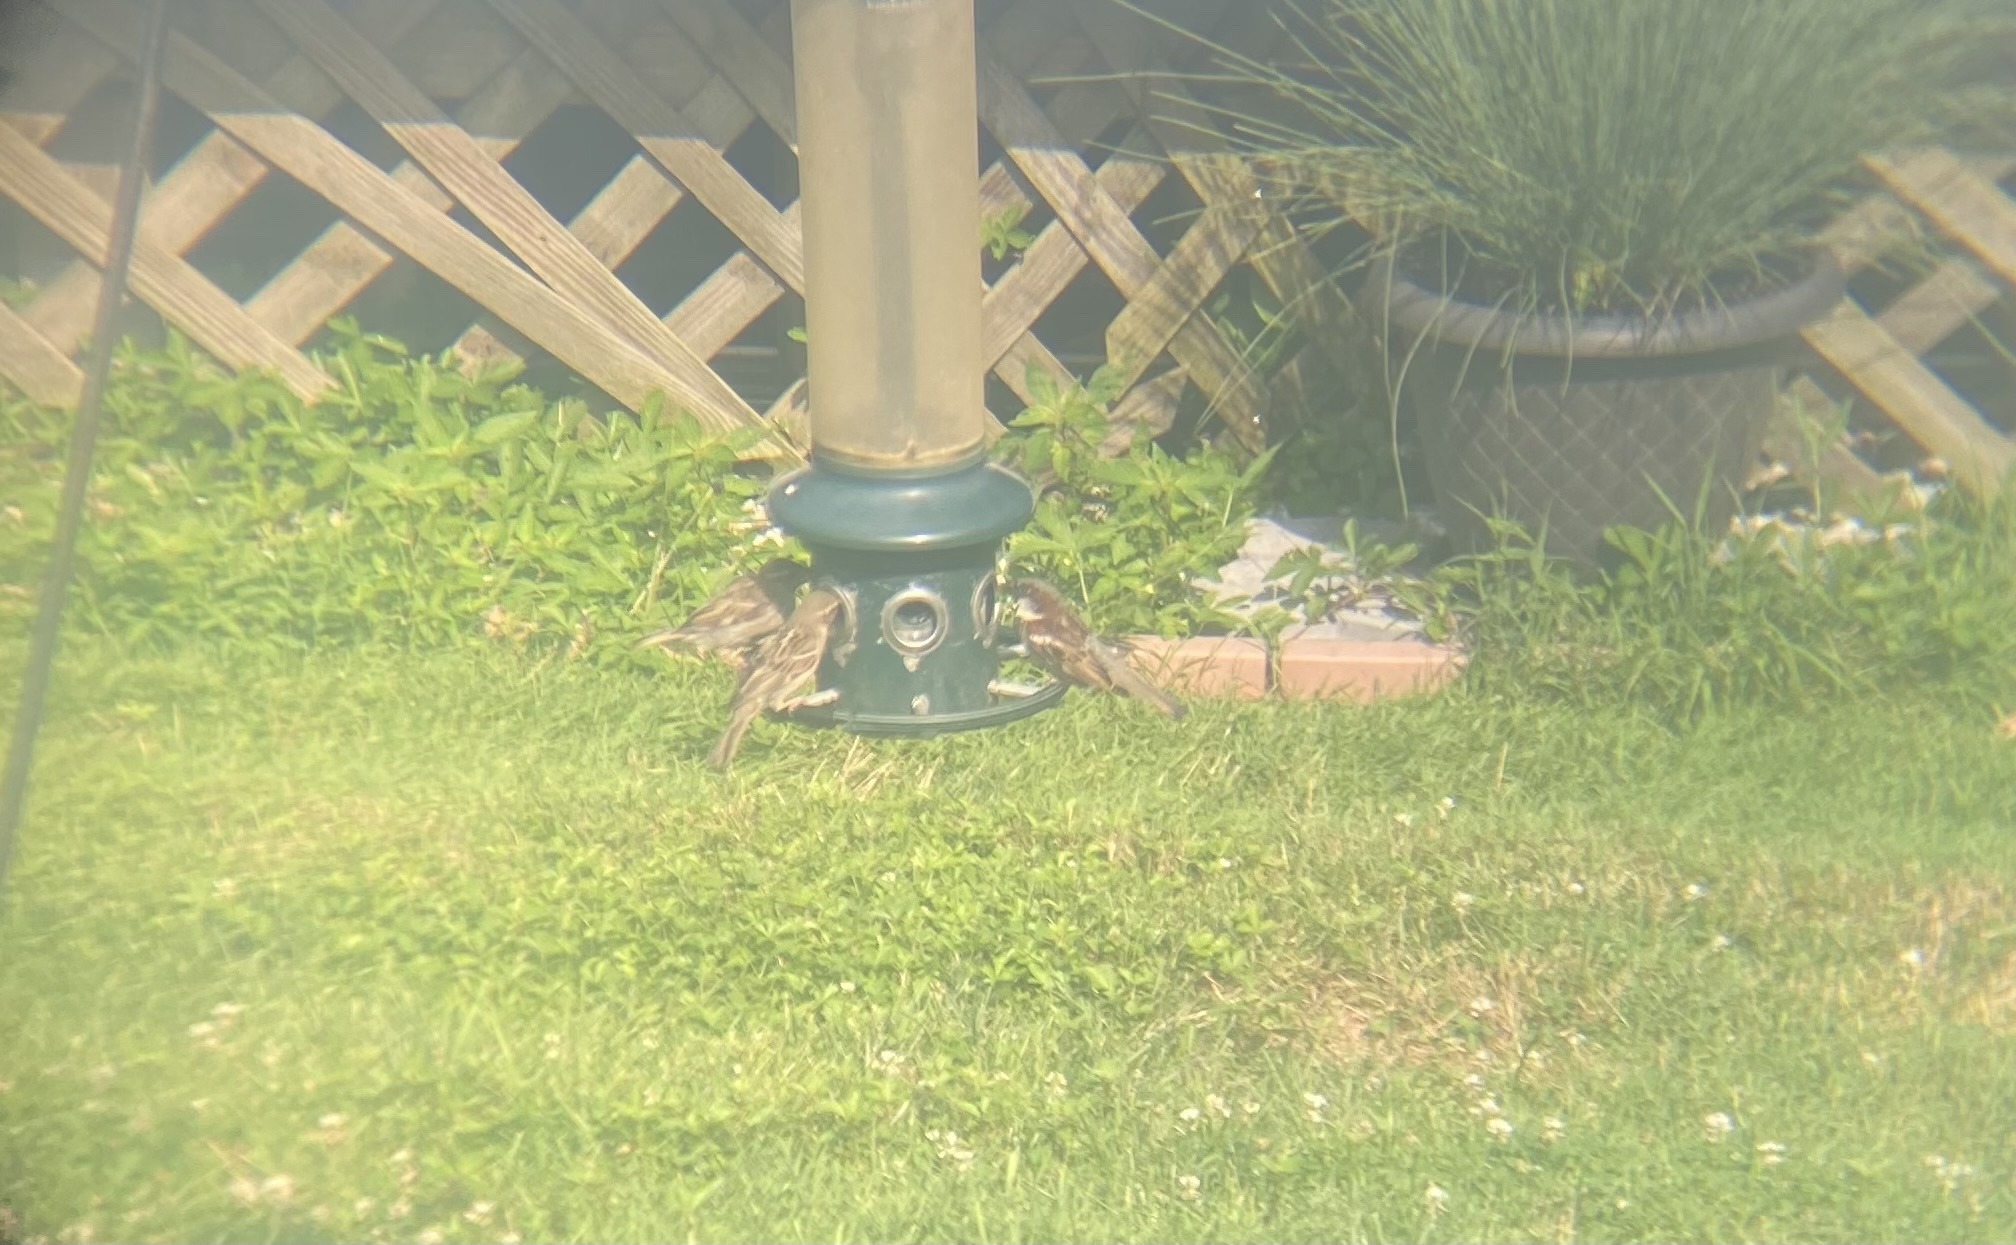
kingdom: Animalia
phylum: Chordata
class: Aves
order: Passeriformes
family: Passeridae
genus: Passer
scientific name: Passer domesticus
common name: House sparrow
